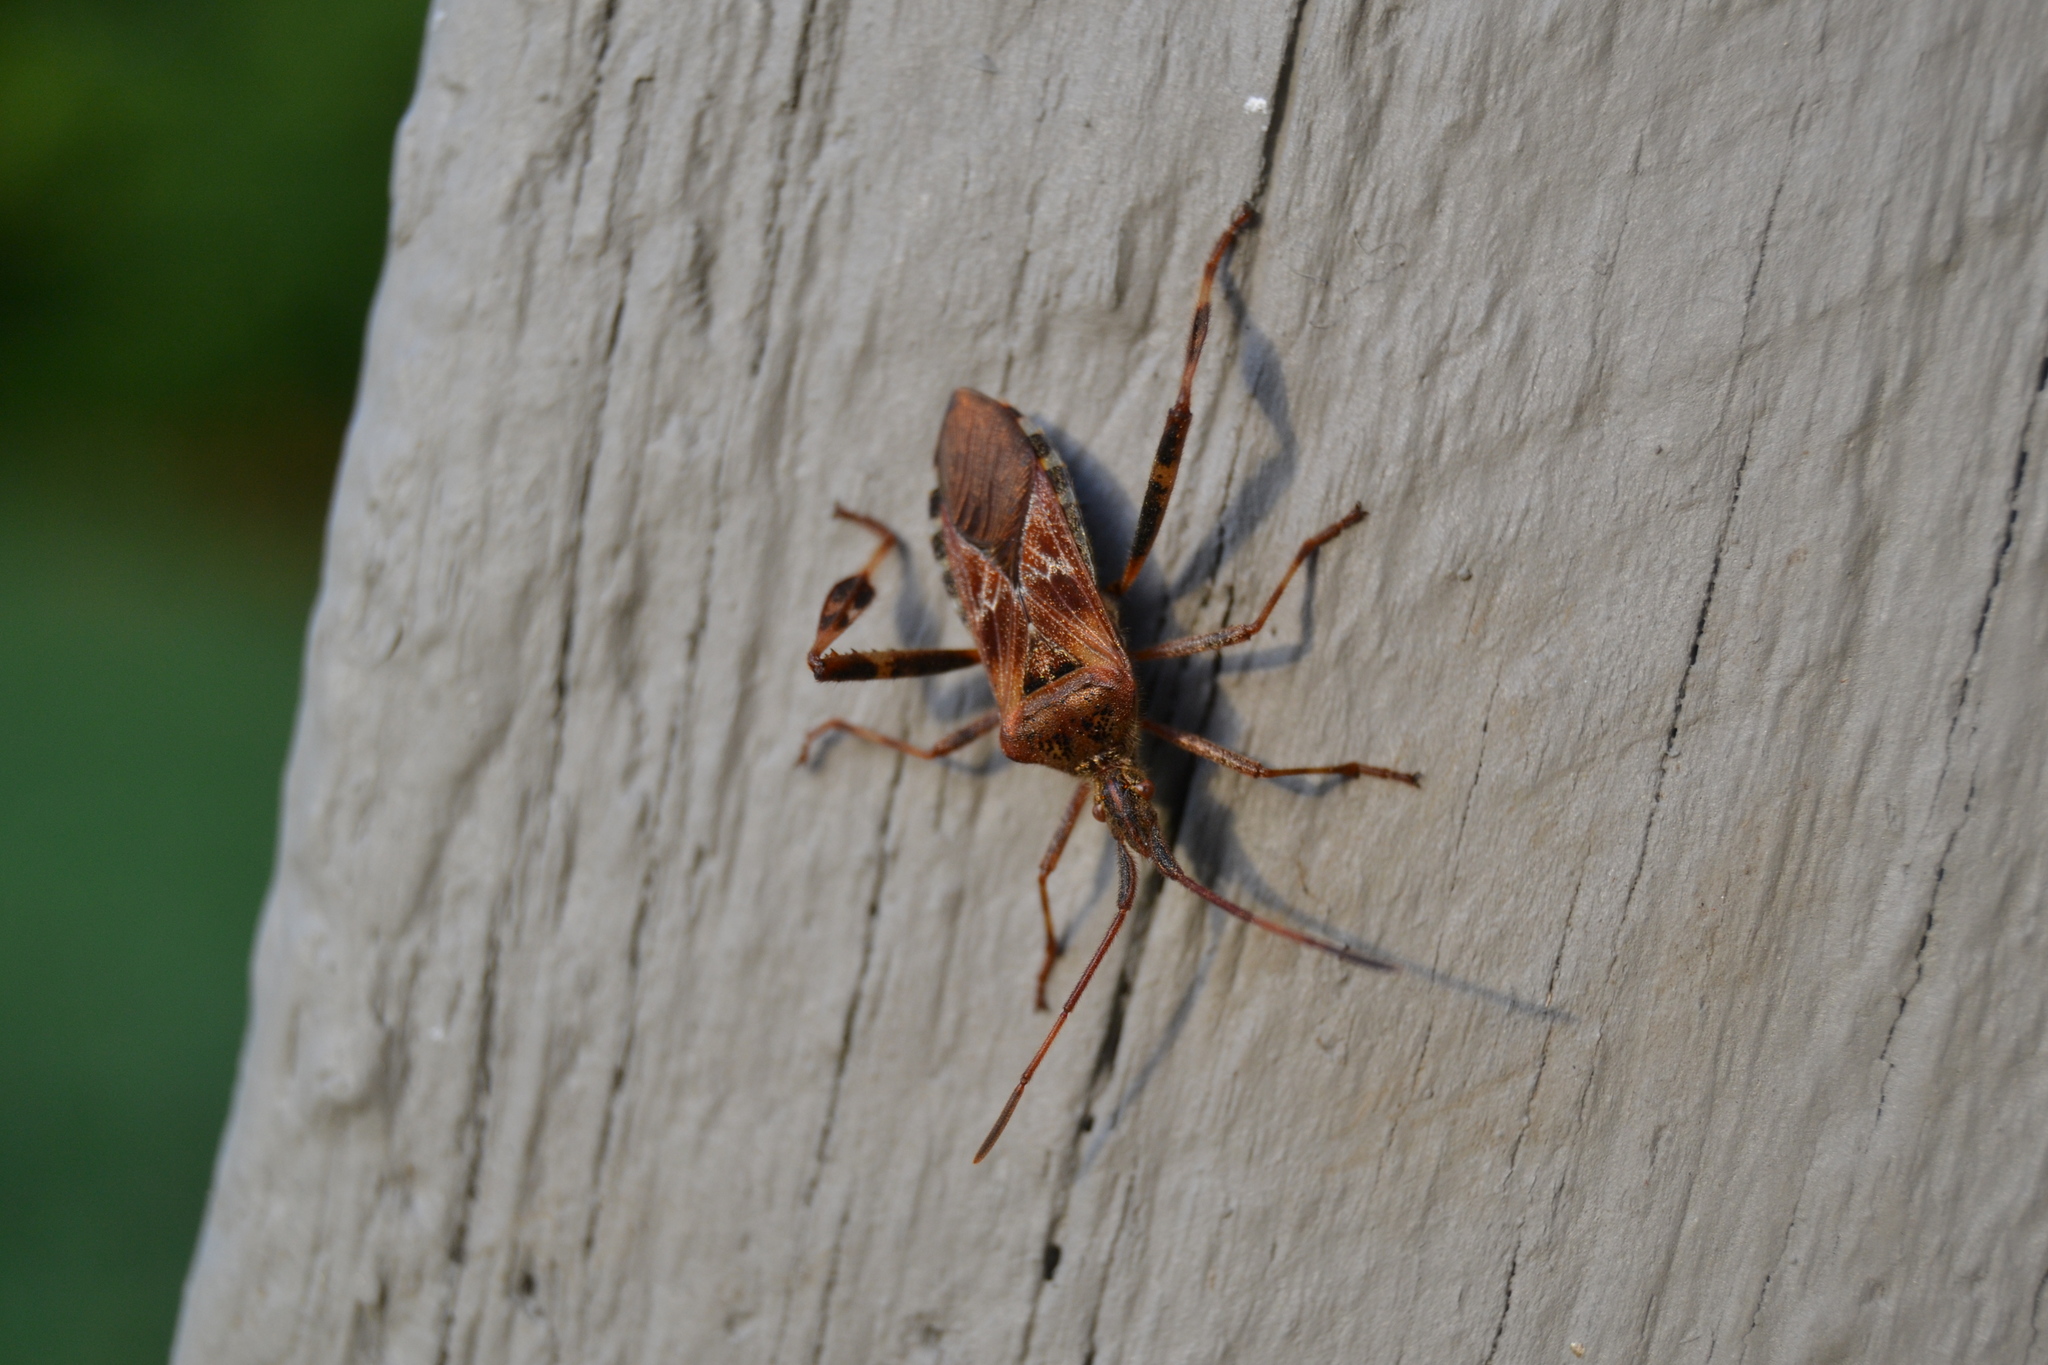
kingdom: Animalia
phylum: Arthropoda
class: Insecta
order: Hemiptera
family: Coreidae
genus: Leptoglossus
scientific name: Leptoglossus occidentalis
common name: Western conifer-seed bug
